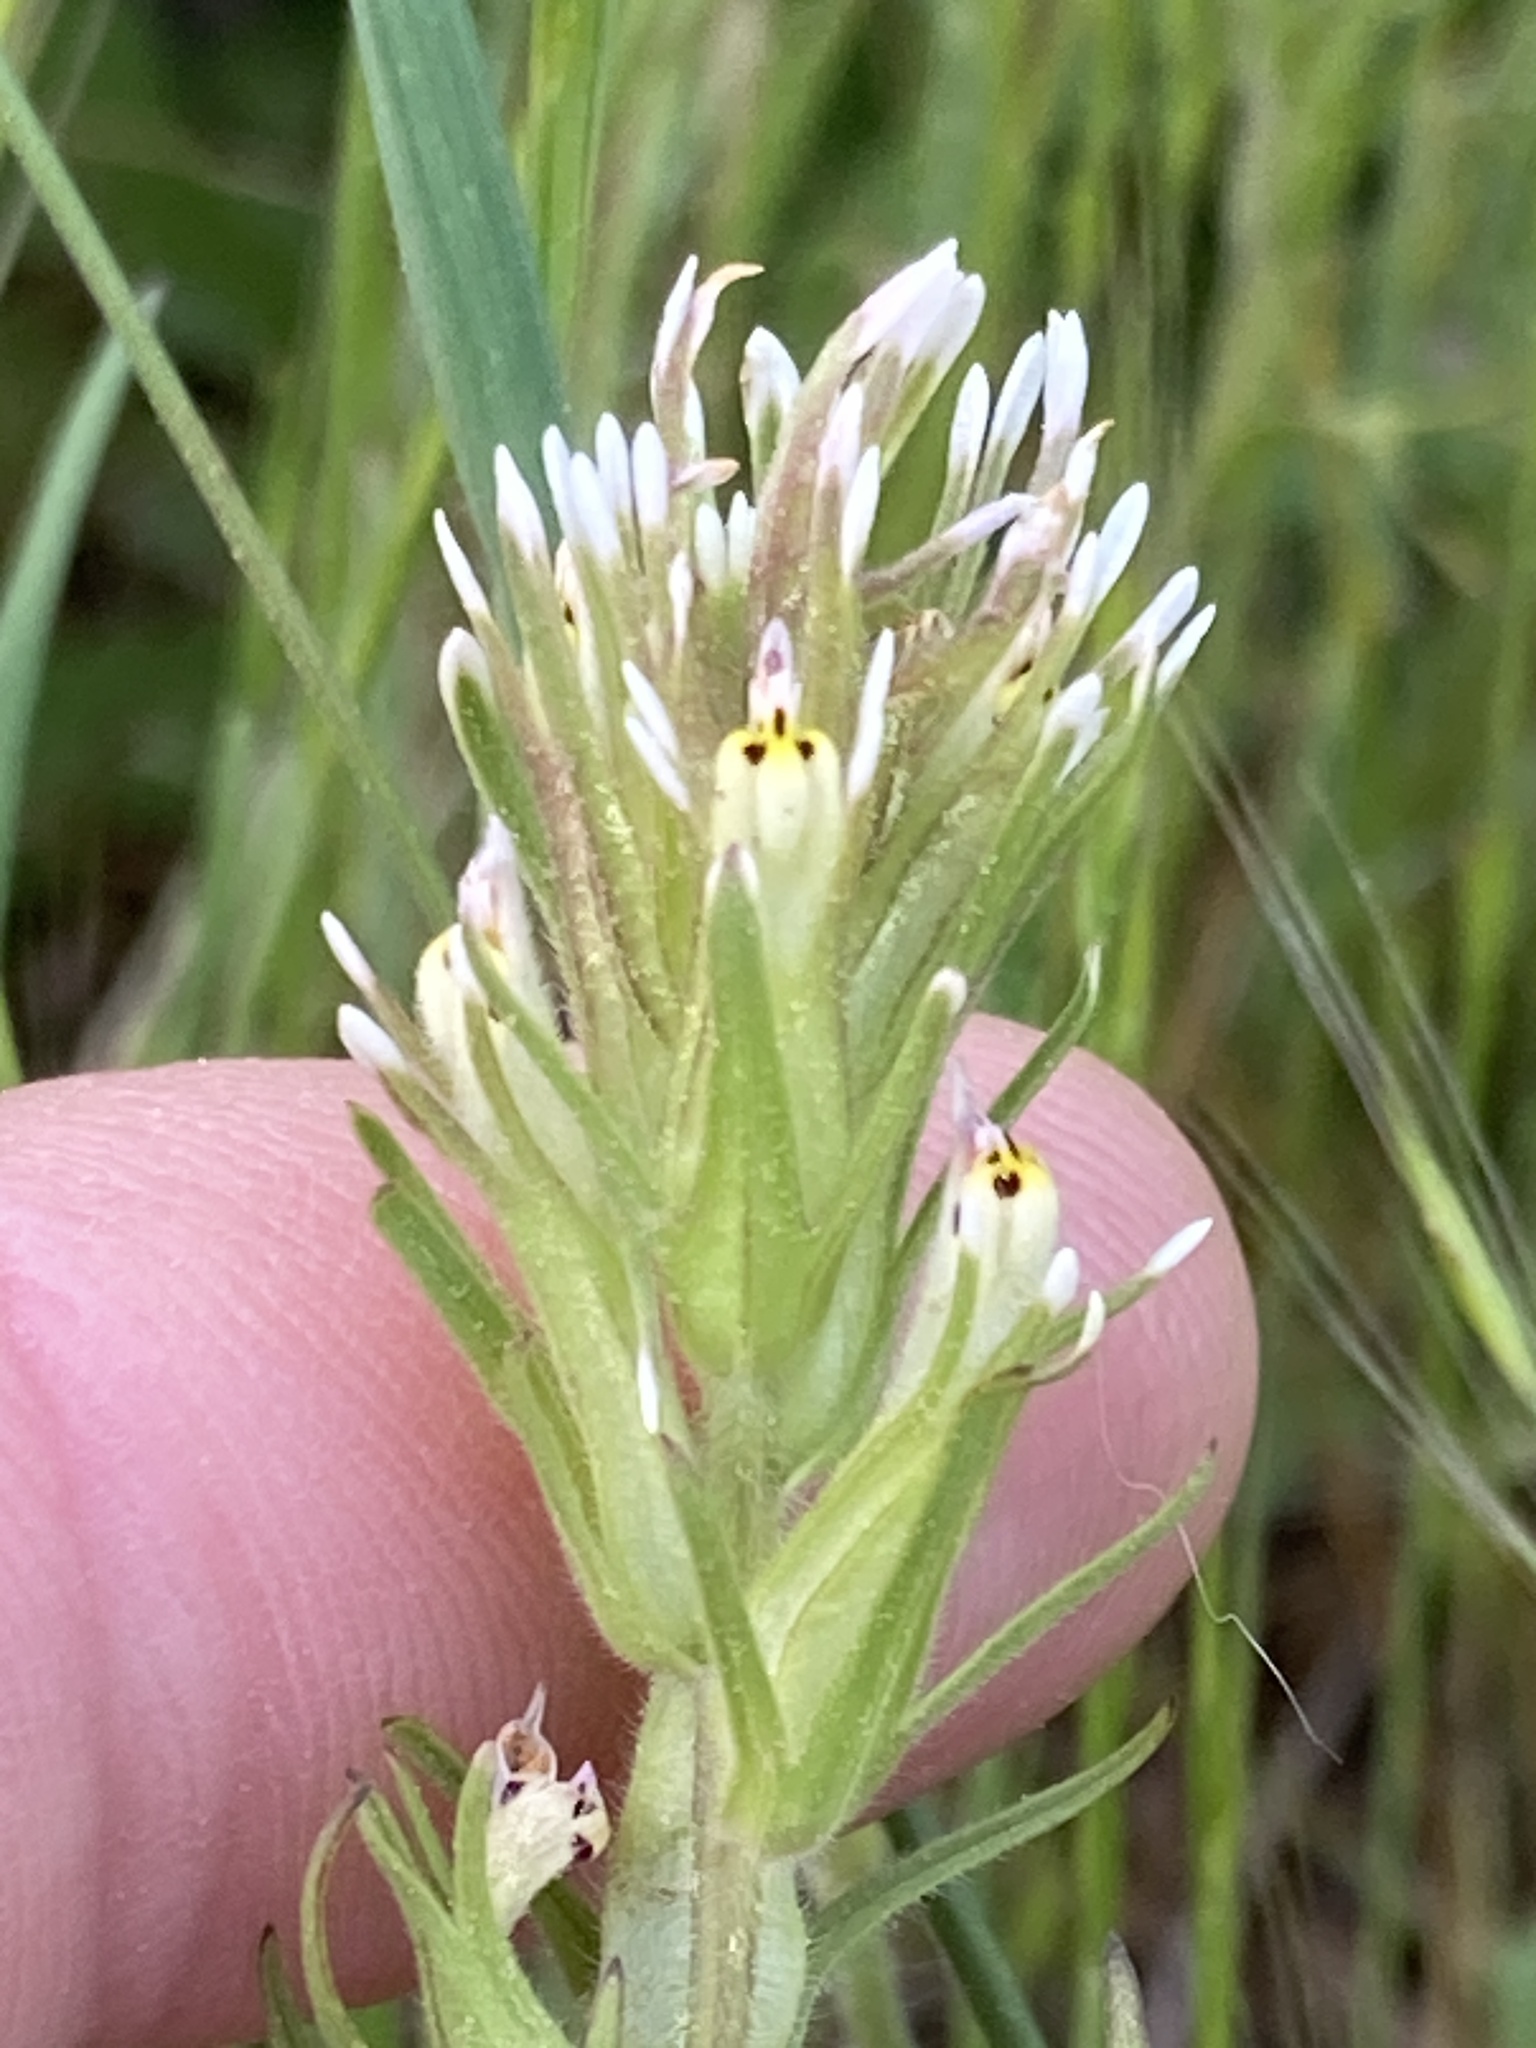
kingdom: Plantae
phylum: Tracheophyta
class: Magnoliopsida
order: Lamiales
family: Orobanchaceae
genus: Castilleja
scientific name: Castilleja attenuata
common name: Valley tassels
